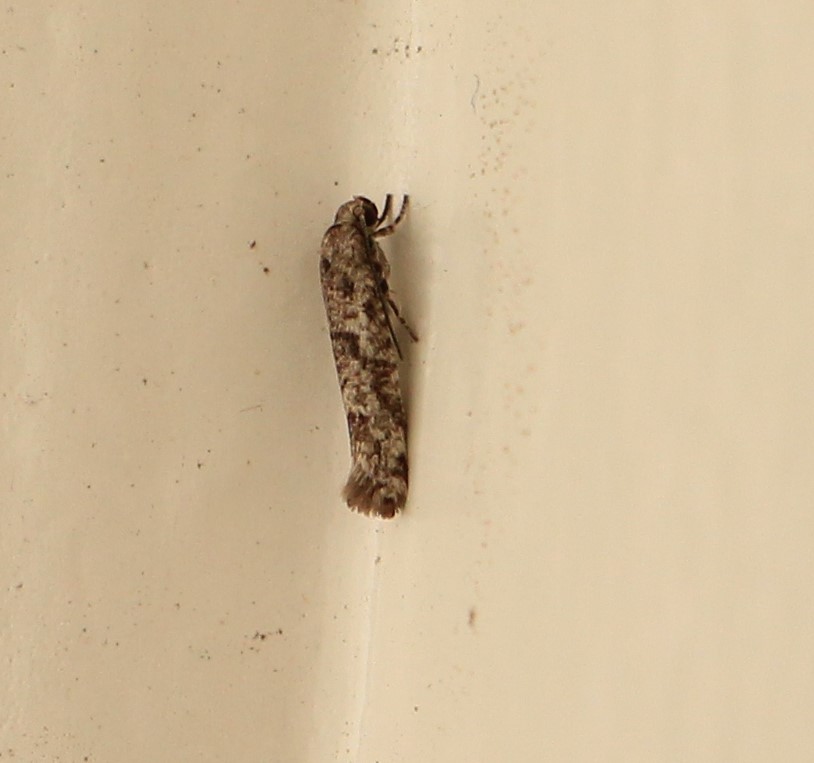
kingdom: Animalia
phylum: Arthropoda
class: Insecta
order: Lepidoptera
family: Praydidae
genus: Prays
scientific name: Prays nephelomima
